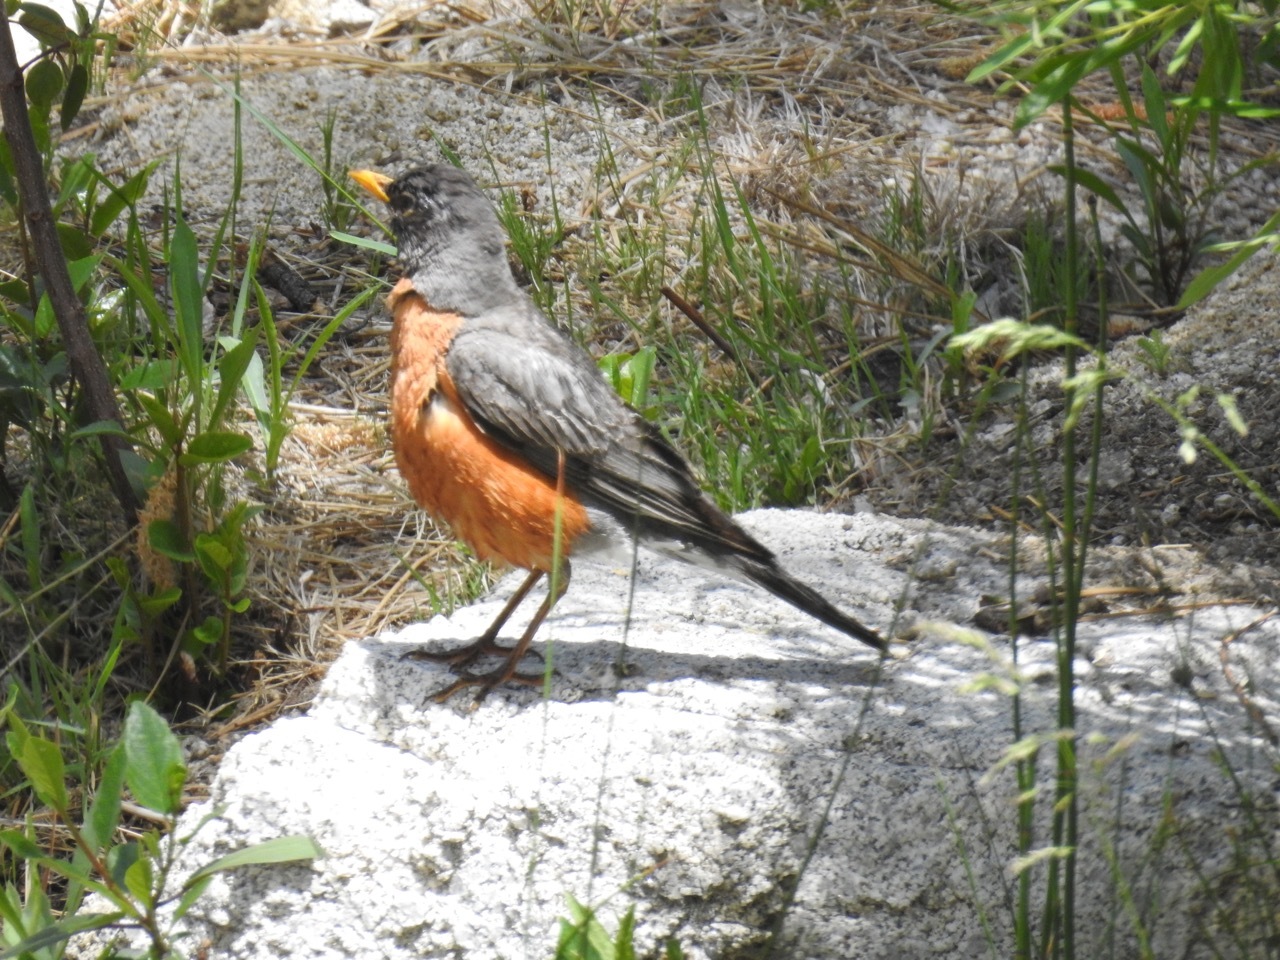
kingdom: Animalia
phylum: Chordata
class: Aves
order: Passeriformes
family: Turdidae
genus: Turdus
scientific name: Turdus migratorius
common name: American robin
